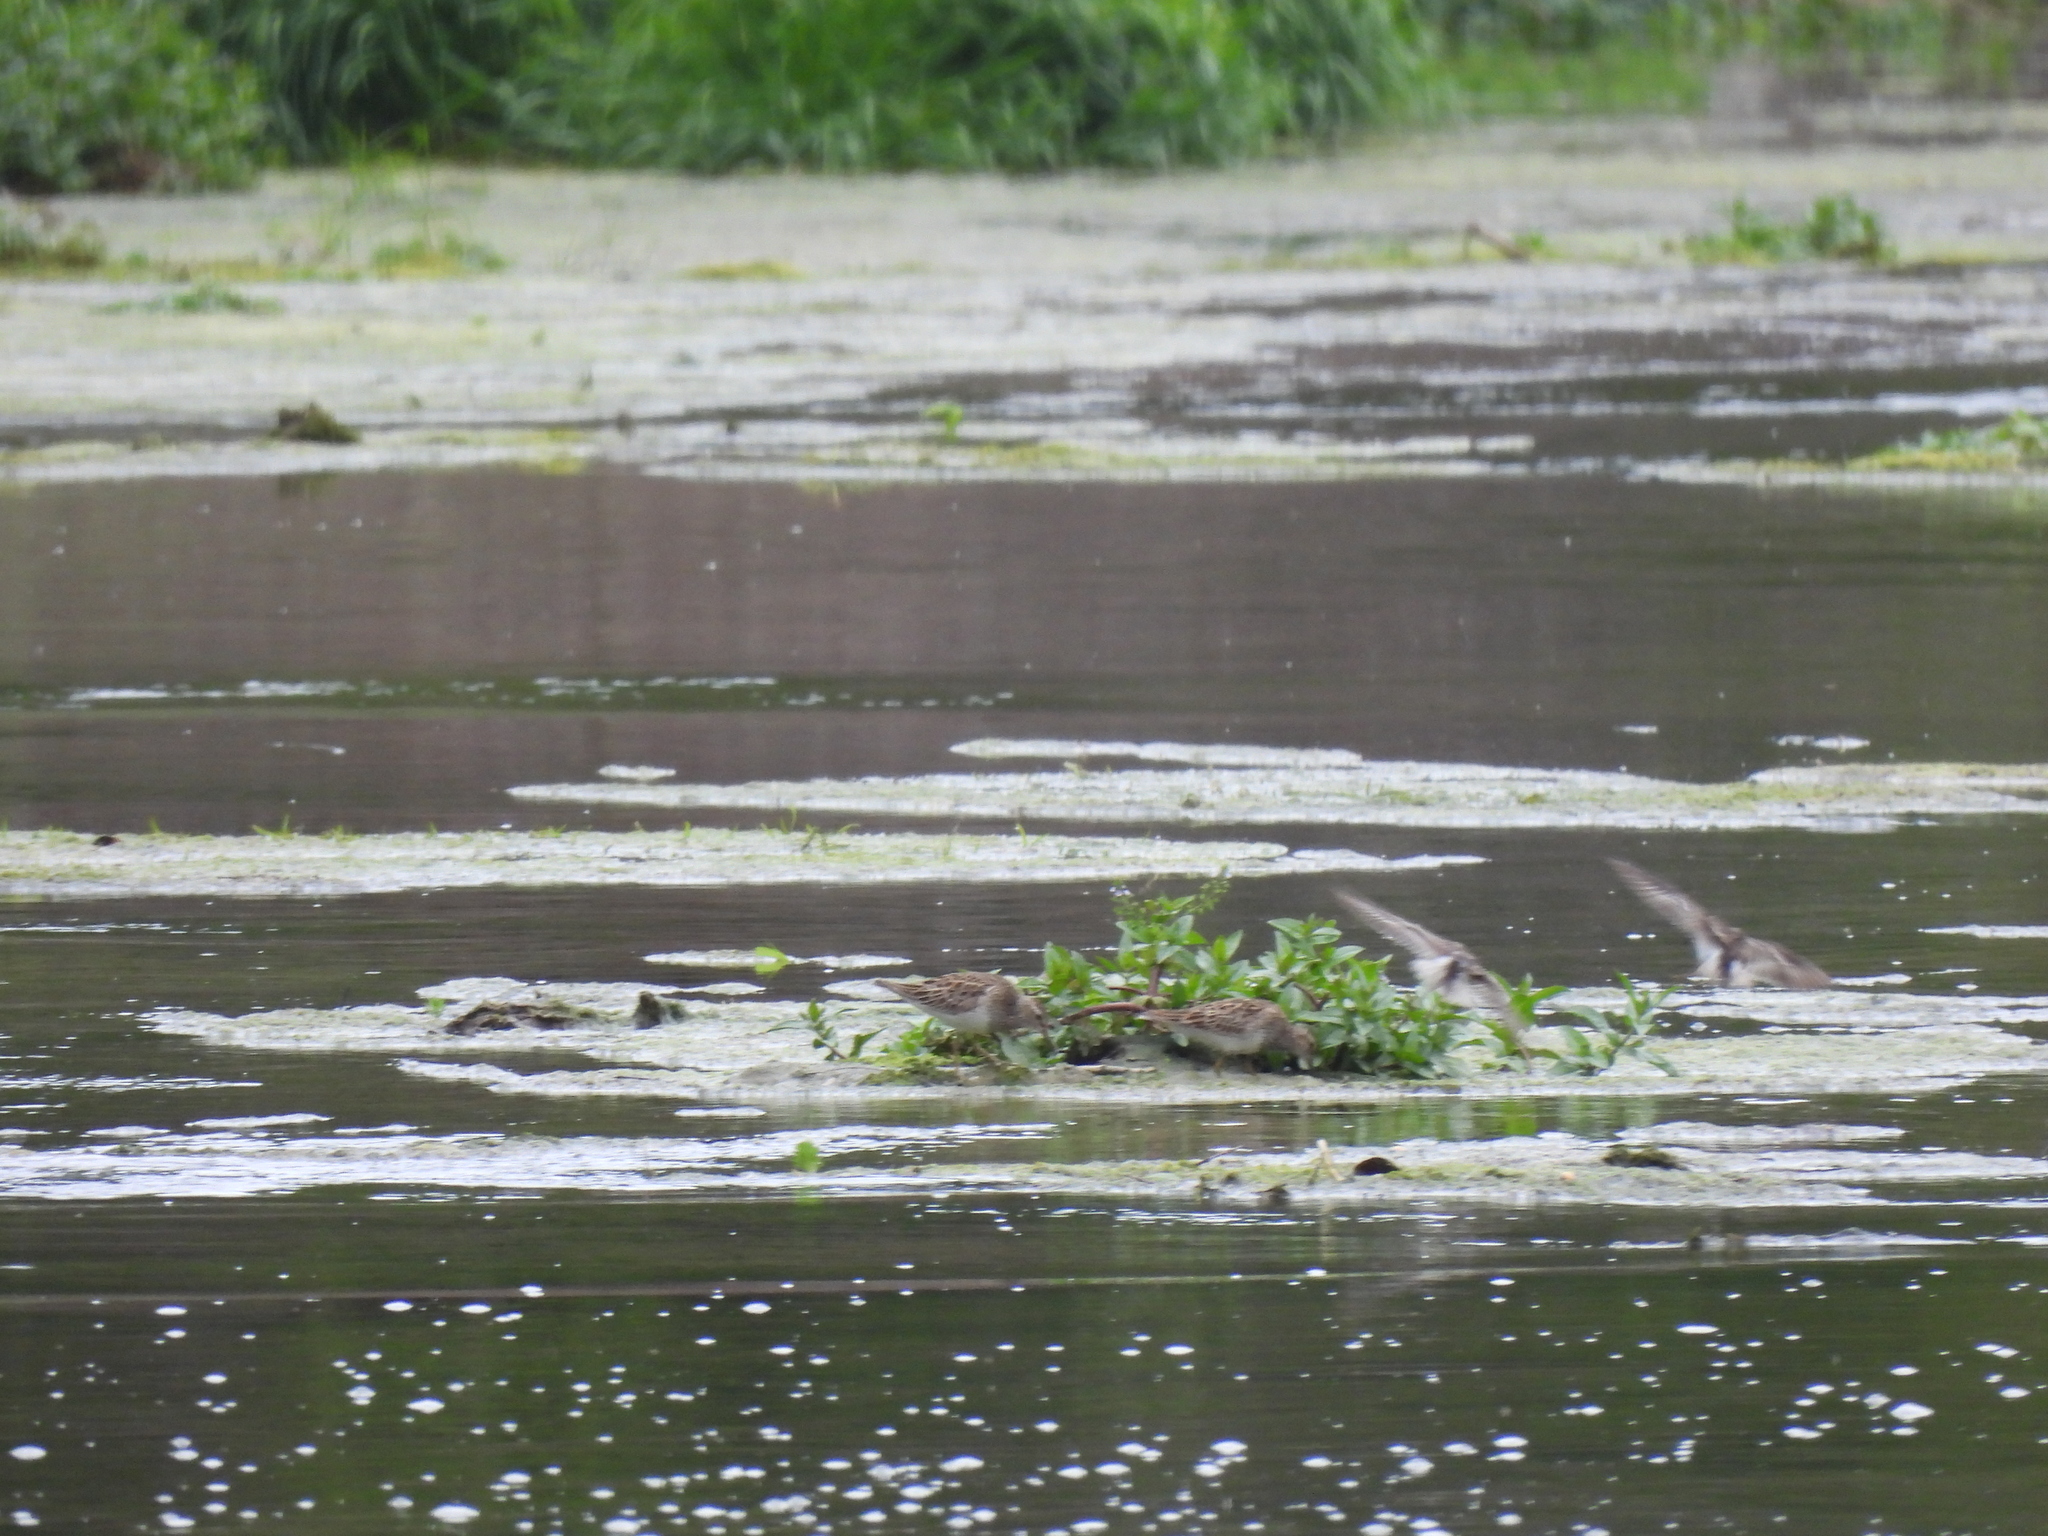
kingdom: Animalia
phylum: Chordata
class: Aves
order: Charadriiformes
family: Scolopacidae
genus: Calidris
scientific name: Calidris melanotos
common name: Pectoral sandpiper
